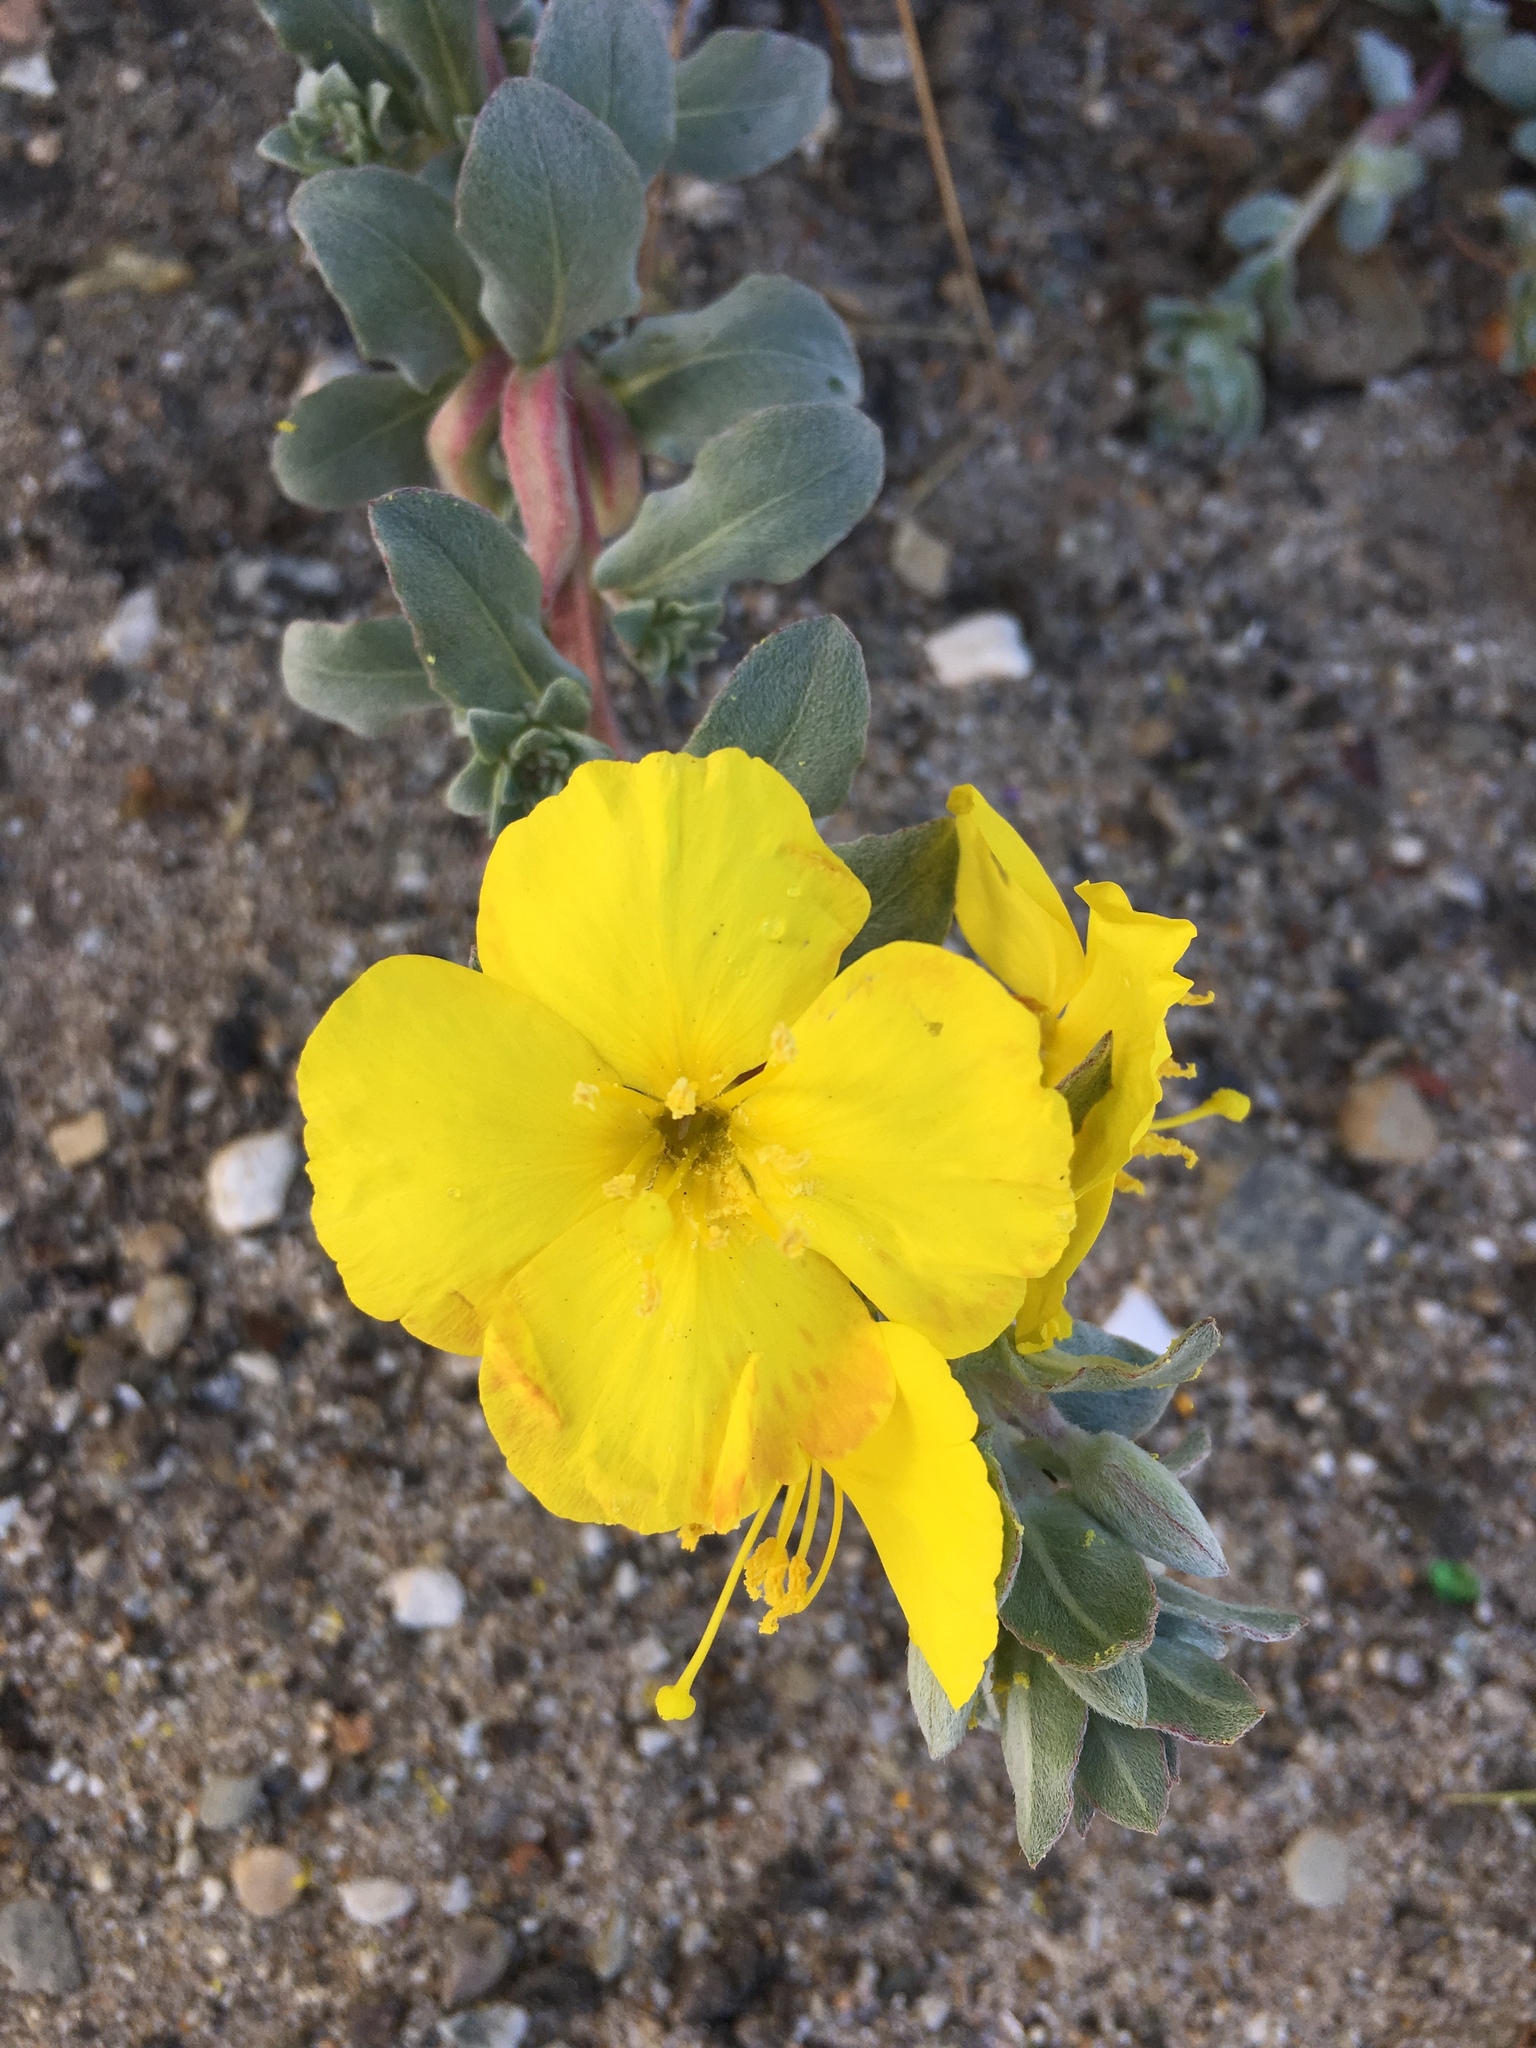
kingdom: Plantae
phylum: Tracheophyta
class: Magnoliopsida
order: Myrtales
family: Onagraceae
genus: Camissoniopsis
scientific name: Camissoniopsis cheiranthifolia
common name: Beach suncup
